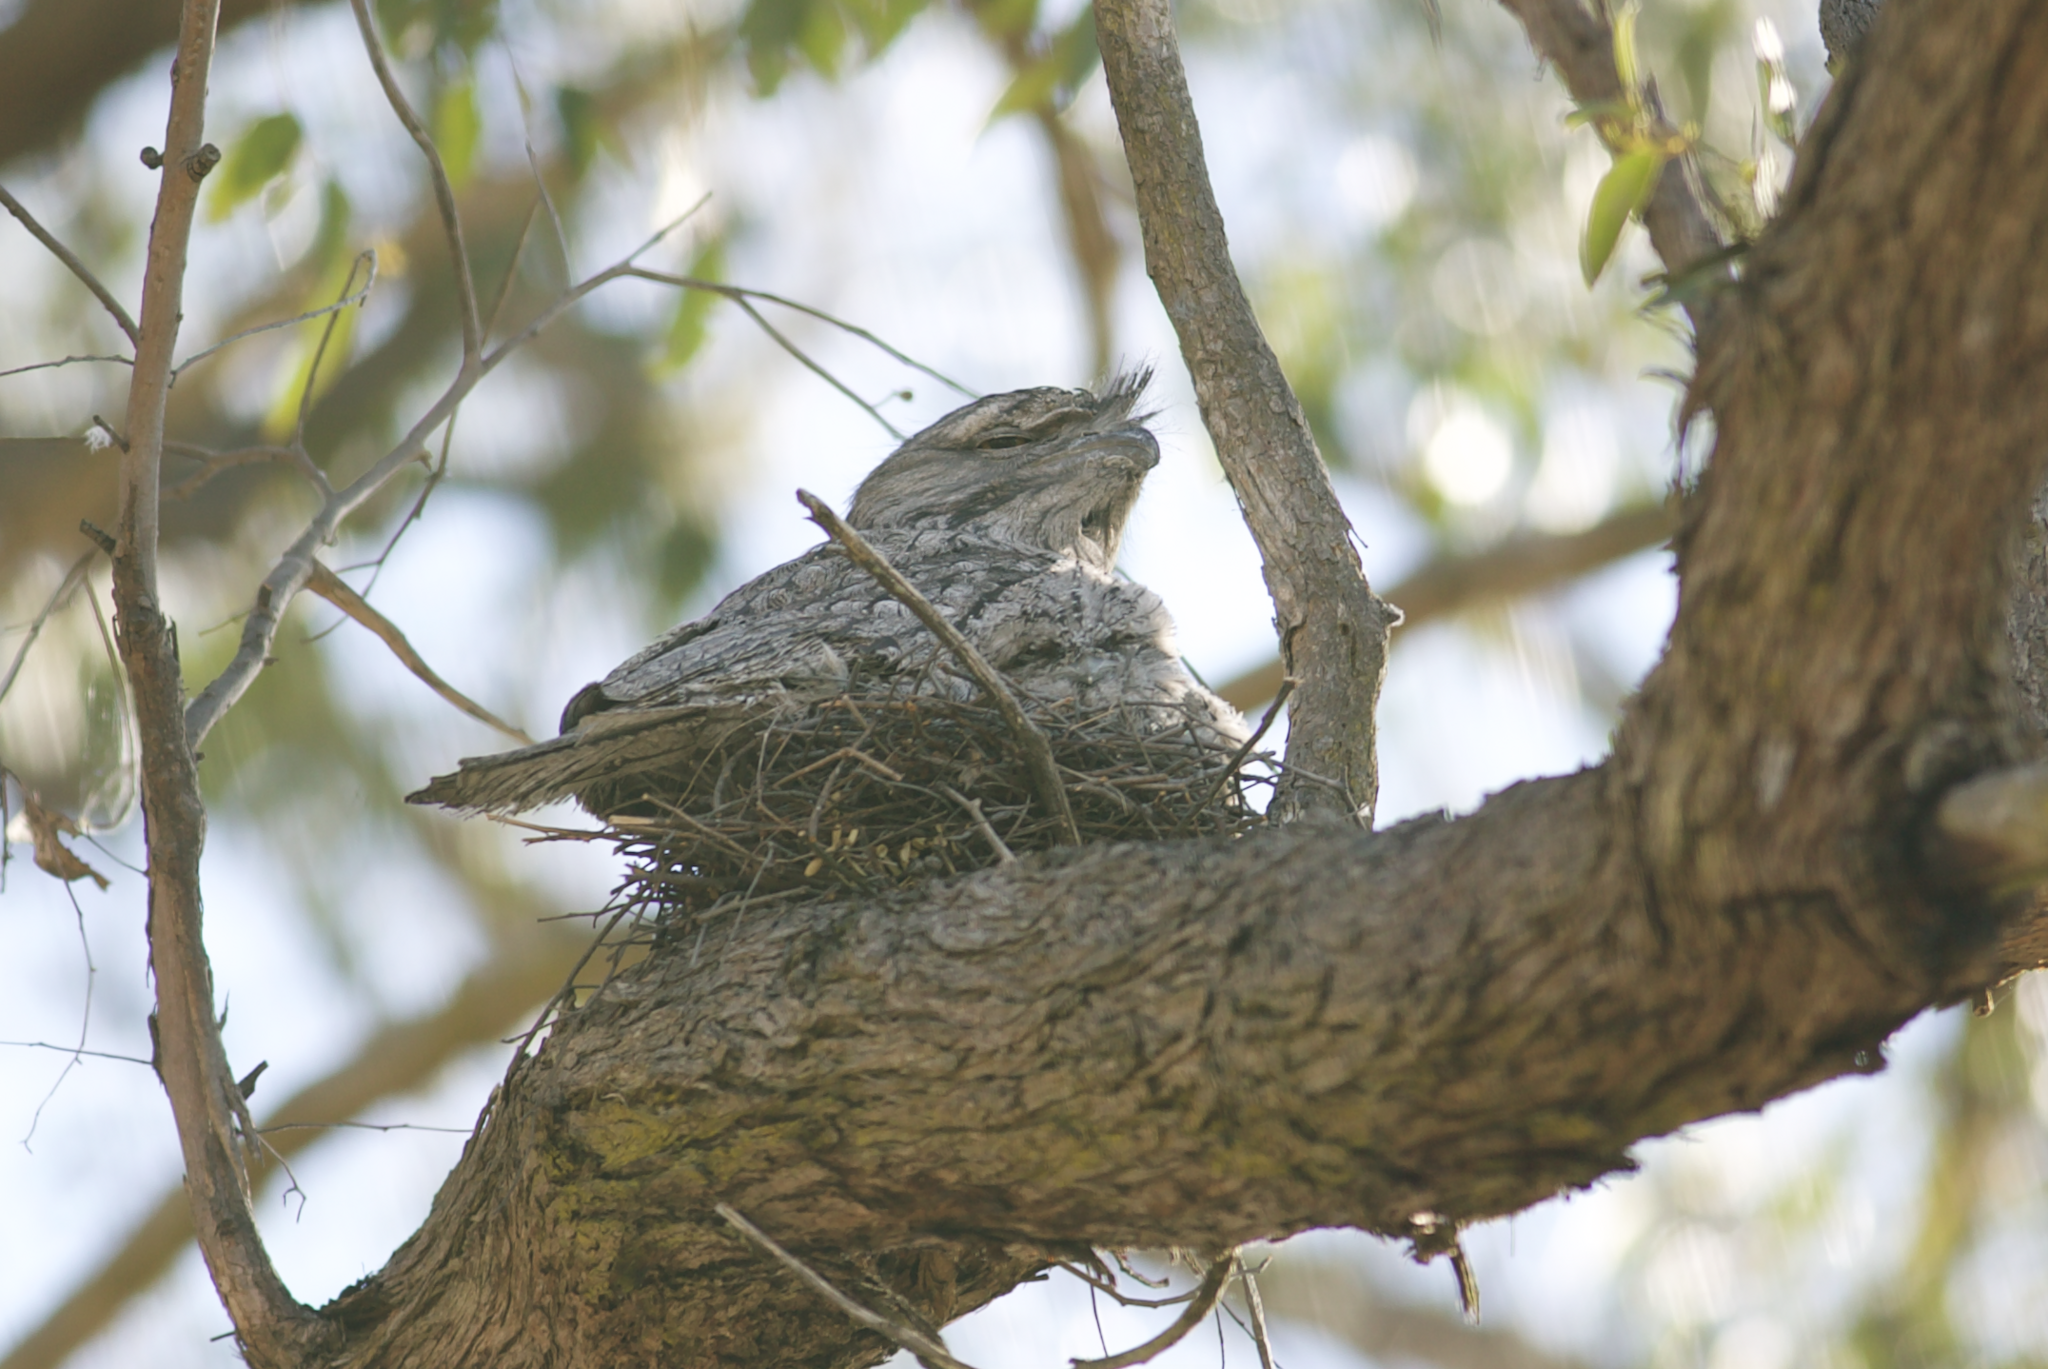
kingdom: Animalia
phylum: Chordata
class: Aves
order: Caprimulgiformes
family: Podargidae
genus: Podargus
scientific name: Podargus strigoides
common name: Tawny frogmouth
